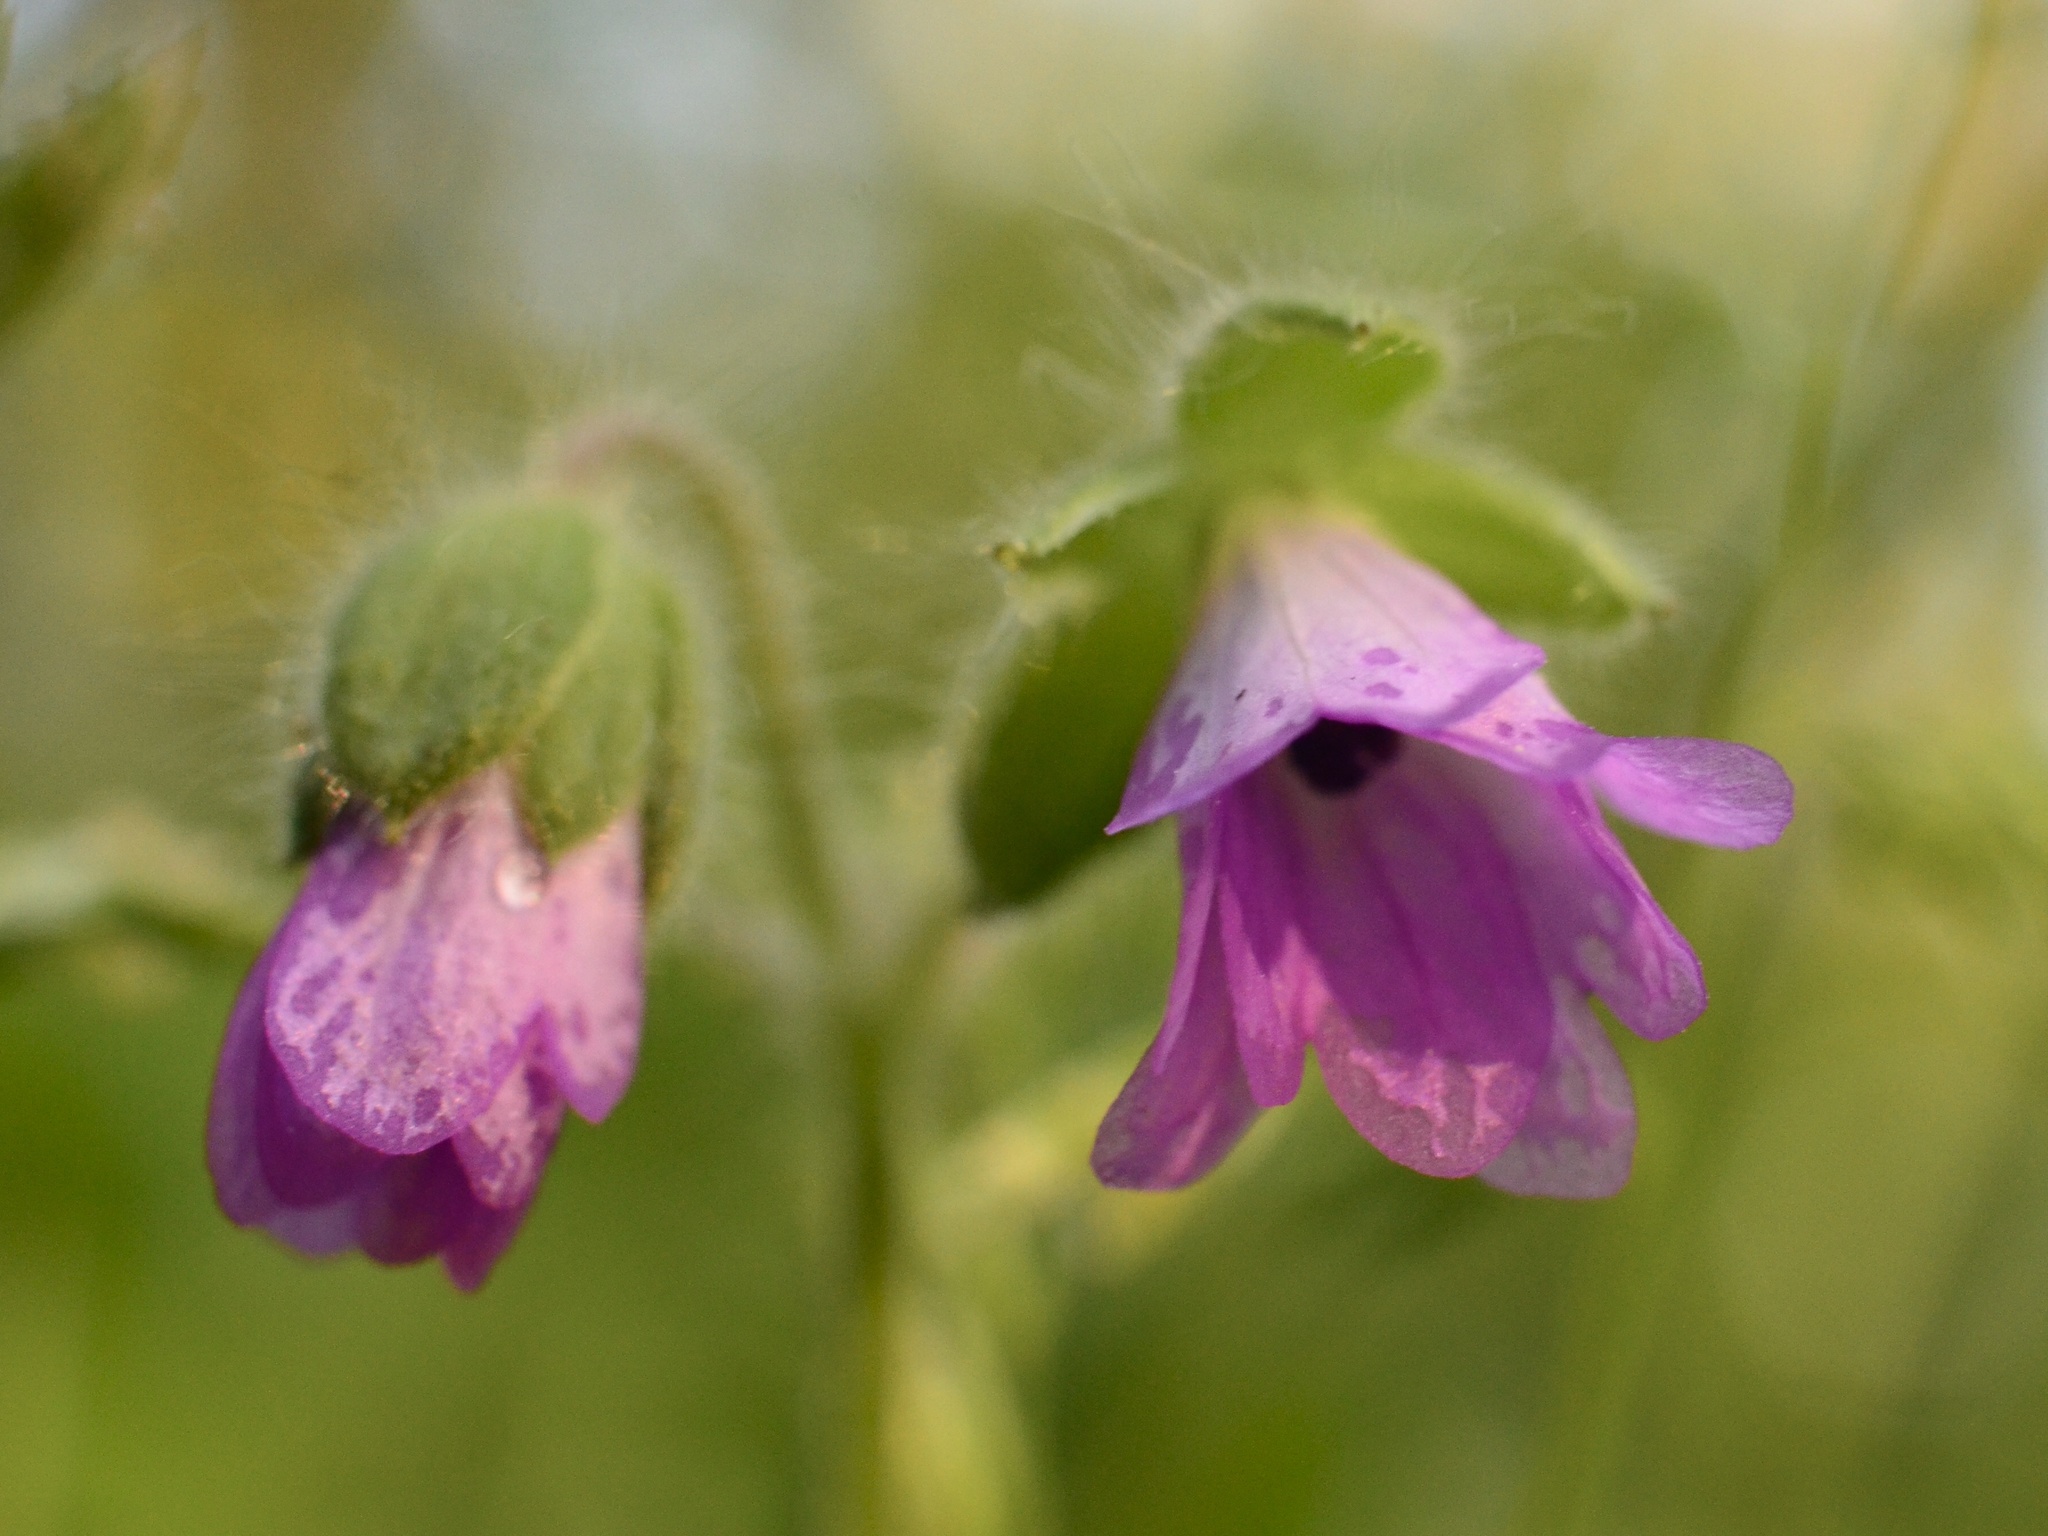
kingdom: Plantae
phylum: Tracheophyta
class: Magnoliopsida
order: Geraniales
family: Geraniaceae
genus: Geranium
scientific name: Geranium molle
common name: Dove's-foot crane's-bill
